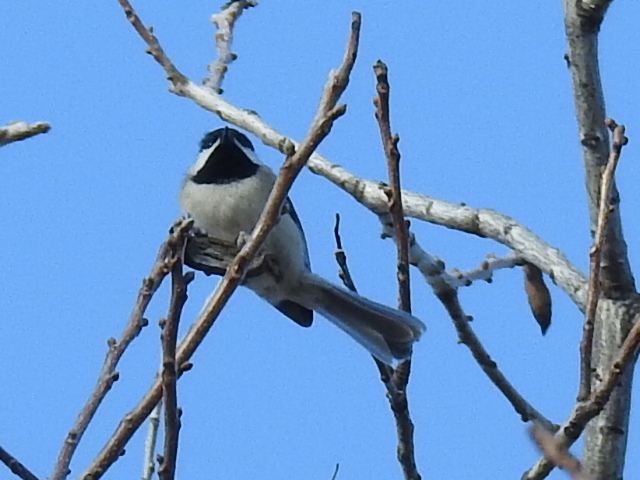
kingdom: Animalia
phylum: Chordata
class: Aves
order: Passeriformes
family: Paridae
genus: Poecile
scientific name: Poecile carolinensis
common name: Carolina chickadee
